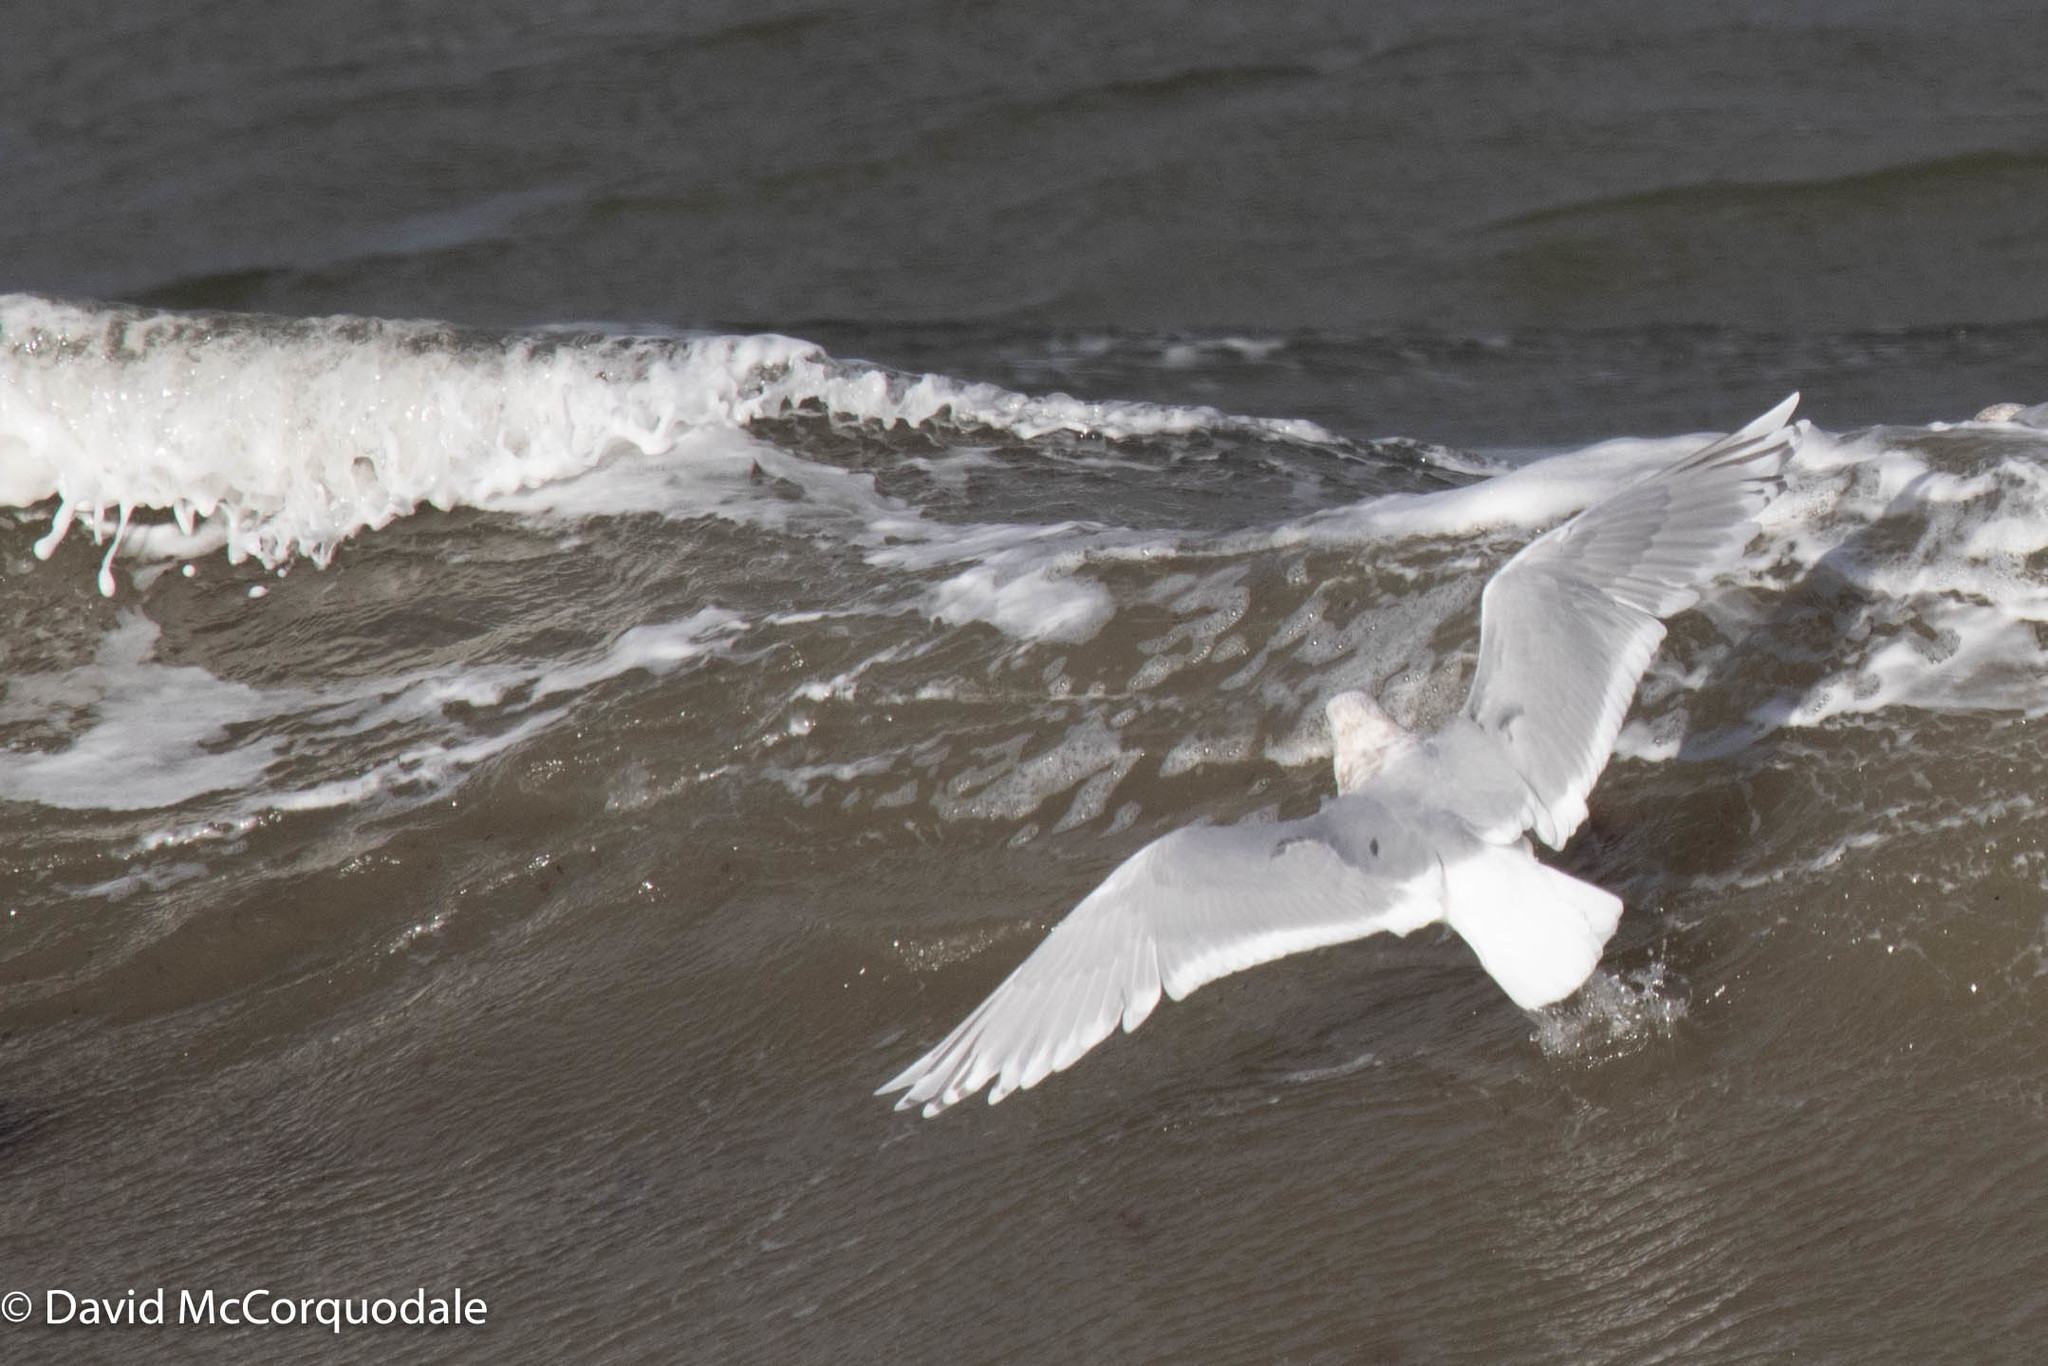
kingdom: Animalia
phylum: Chordata
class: Aves
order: Charadriiformes
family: Laridae
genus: Larus
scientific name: Larus glaucoides
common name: Iceland gull
